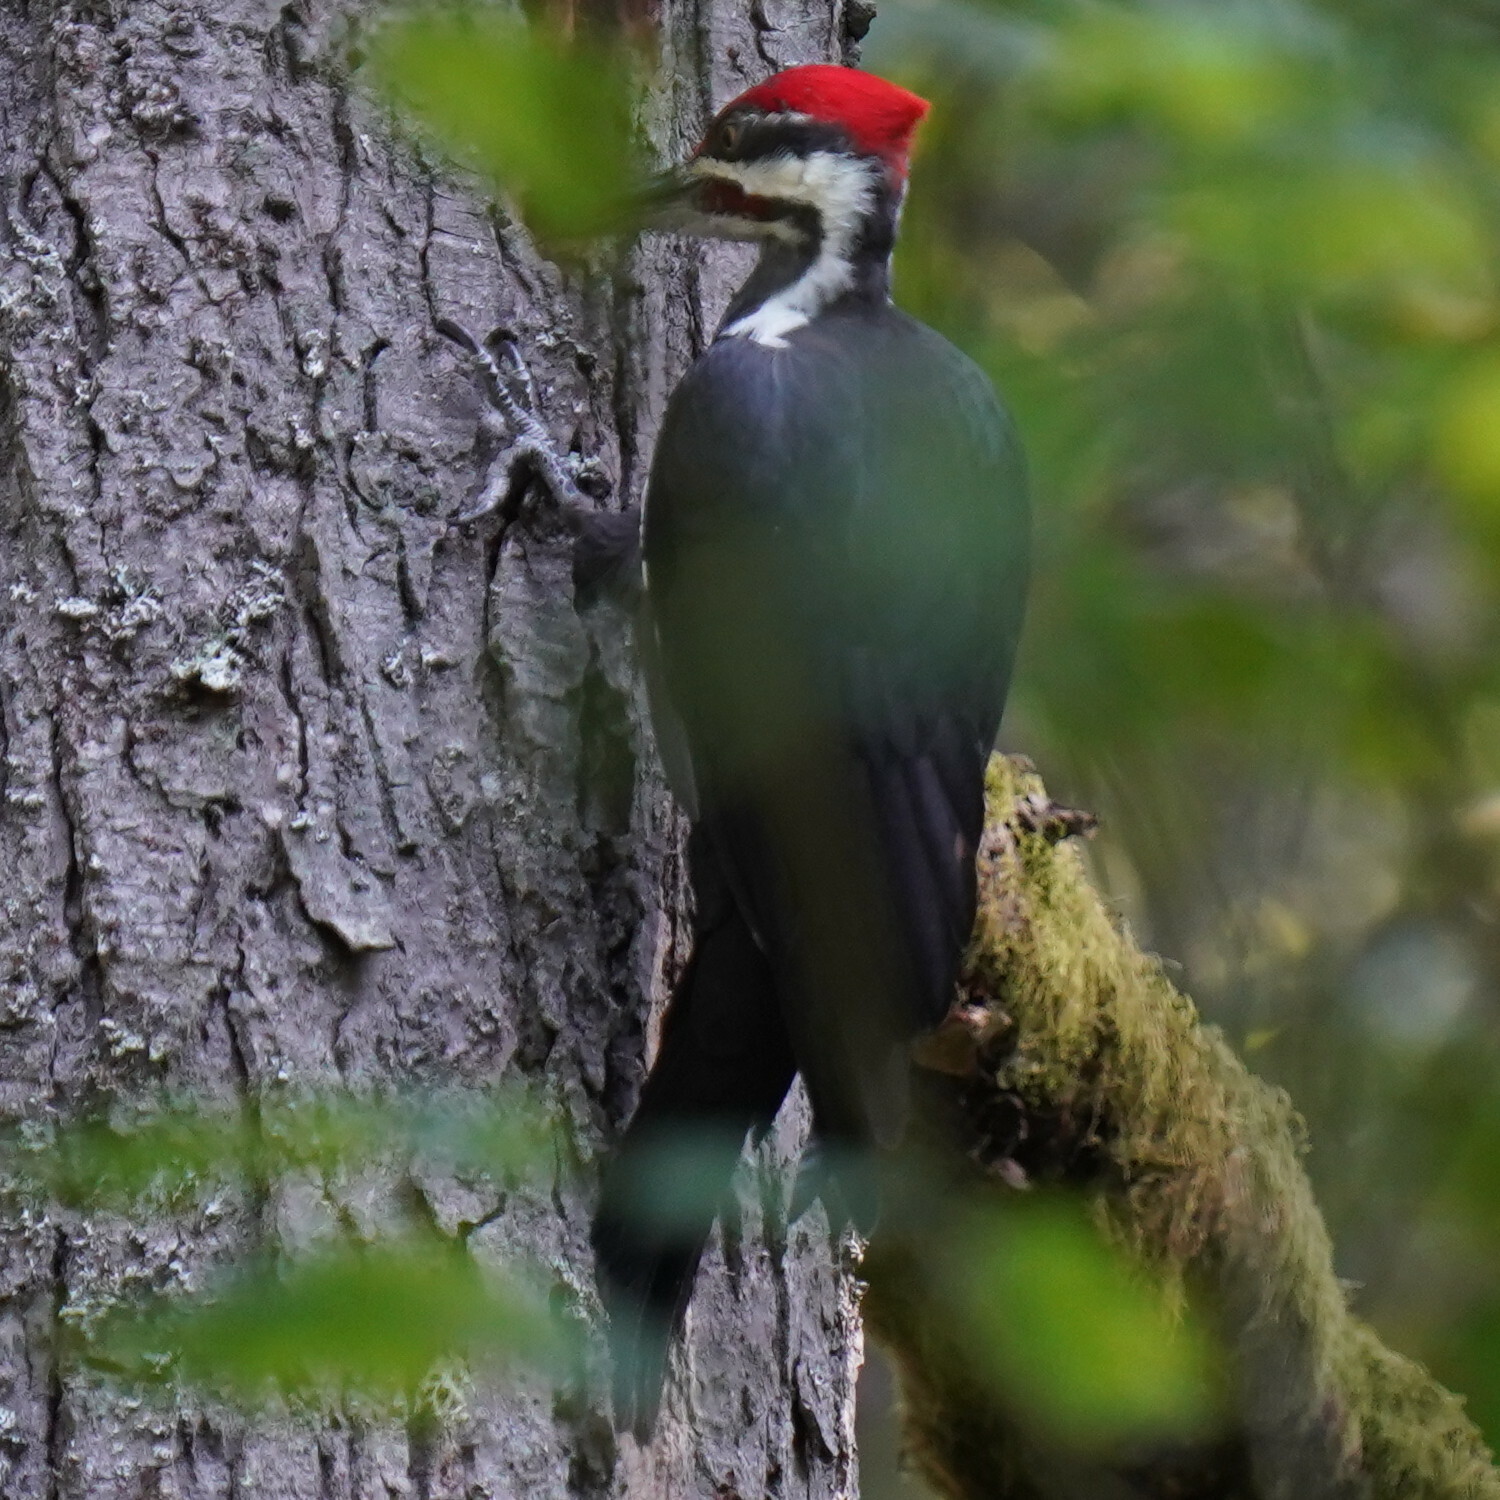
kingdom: Animalia
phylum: Chordata
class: Aves
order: Piciformes
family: Picidae
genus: Dryocopus
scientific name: Dryocopus pileatus
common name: Pileated woodpecker
